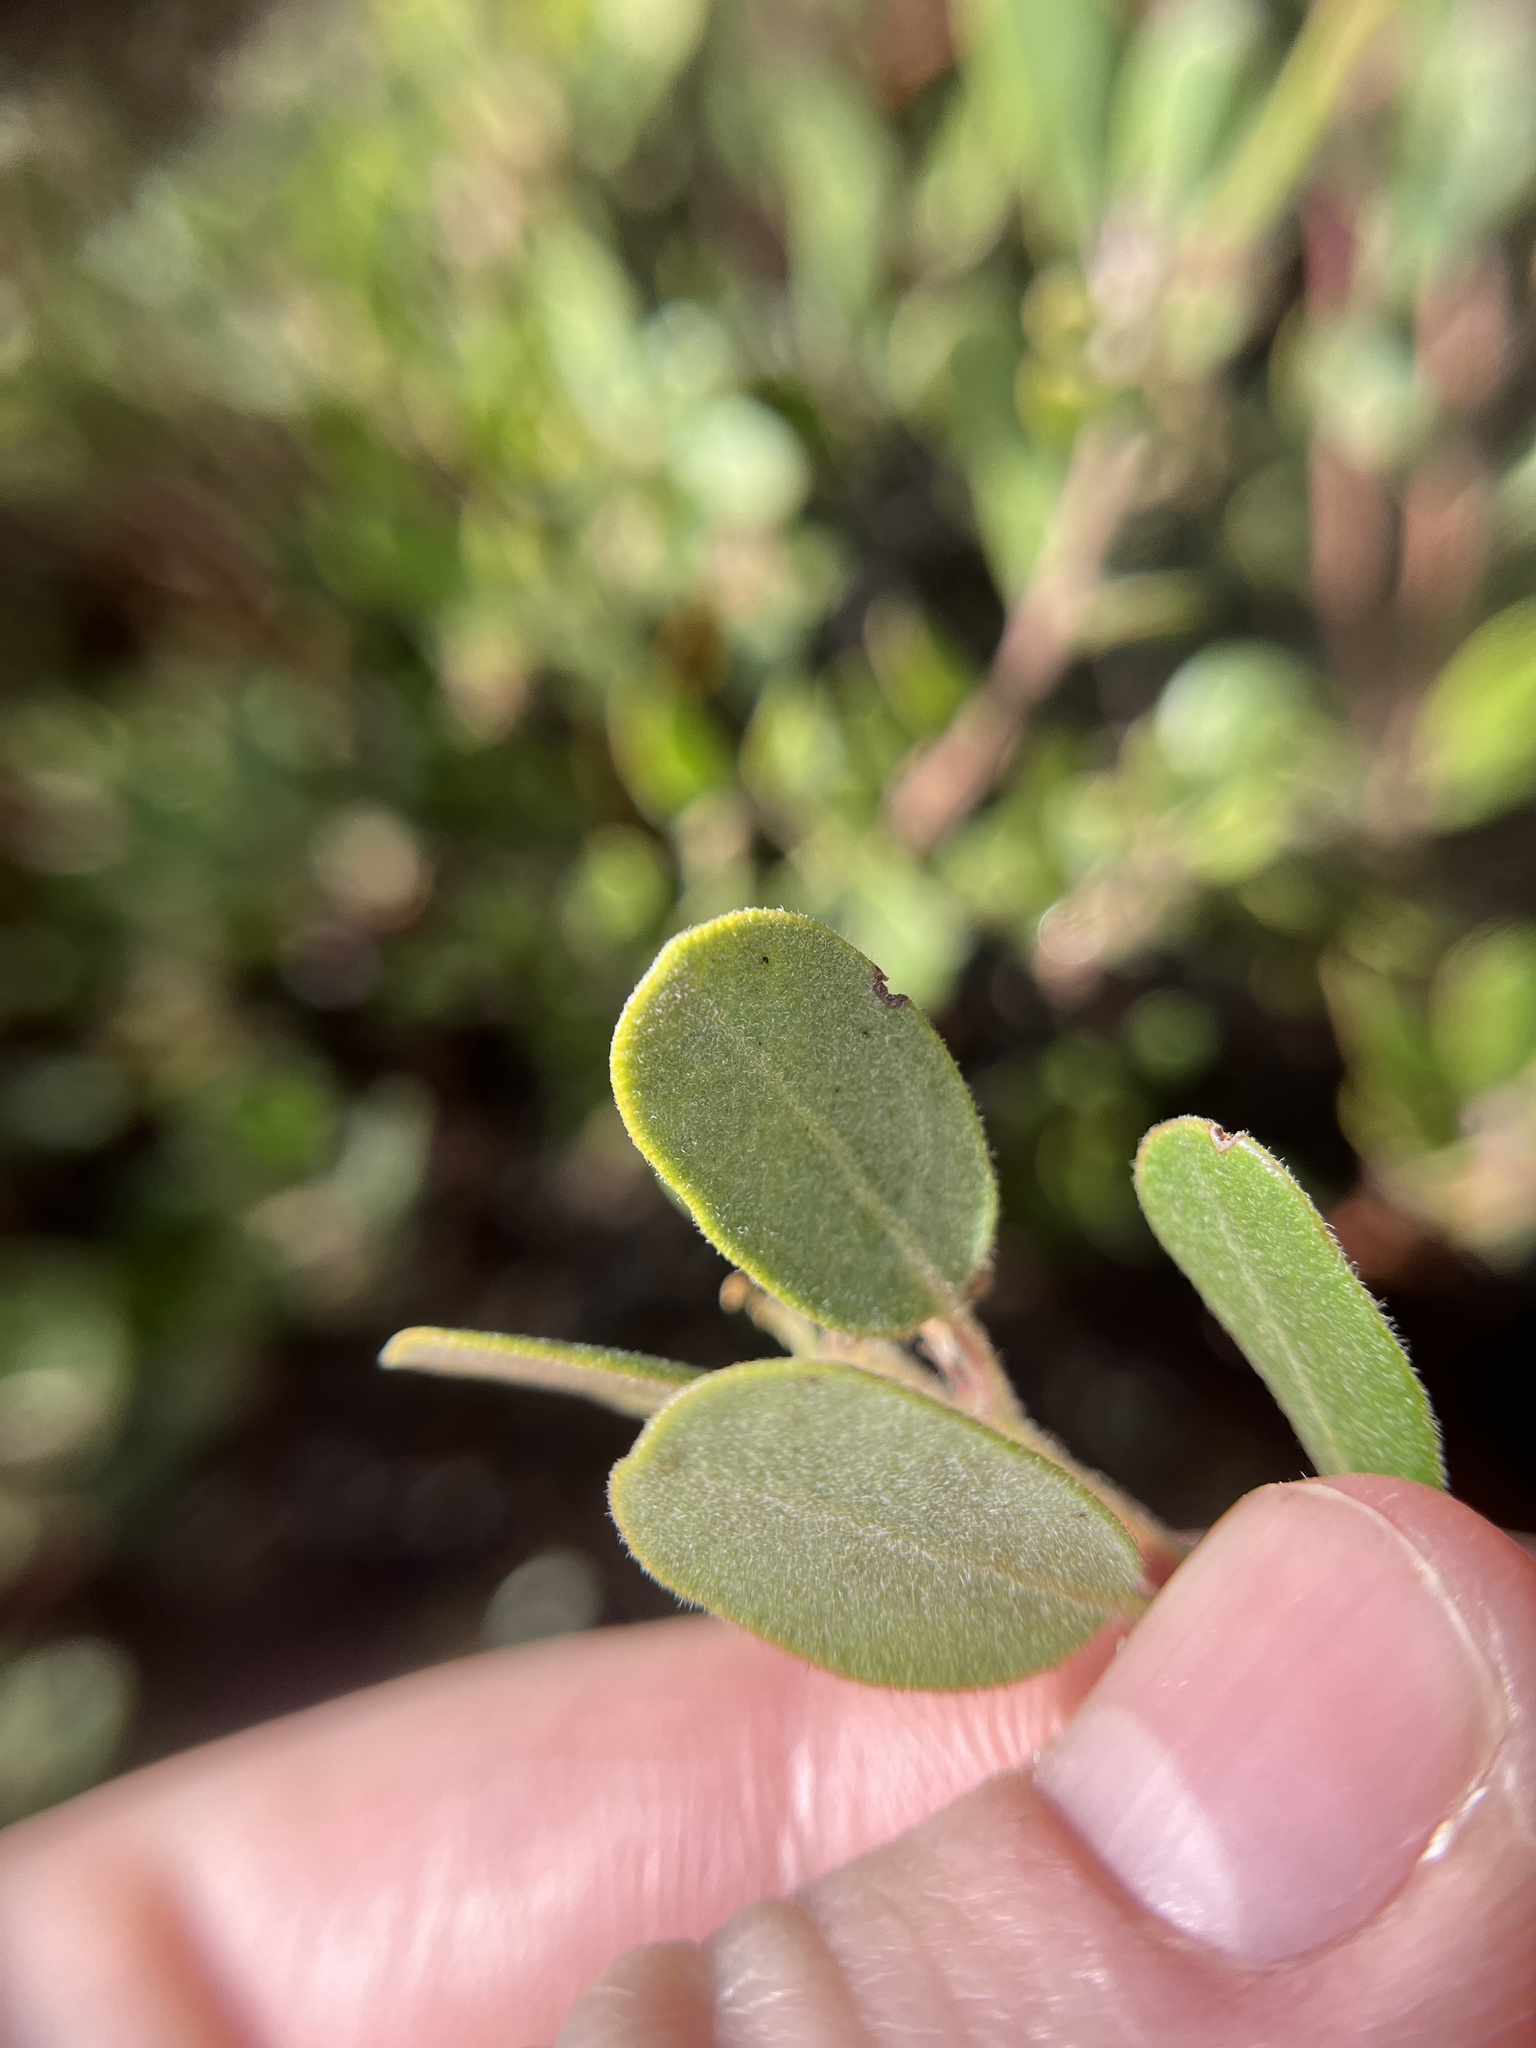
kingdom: Plantae
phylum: Tracheophyta
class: Magnoliopsida
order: Ericales
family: Ericaceae
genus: Arctostaphylos
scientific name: Arctostaphylos pumila
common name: Sandmat manzanita
